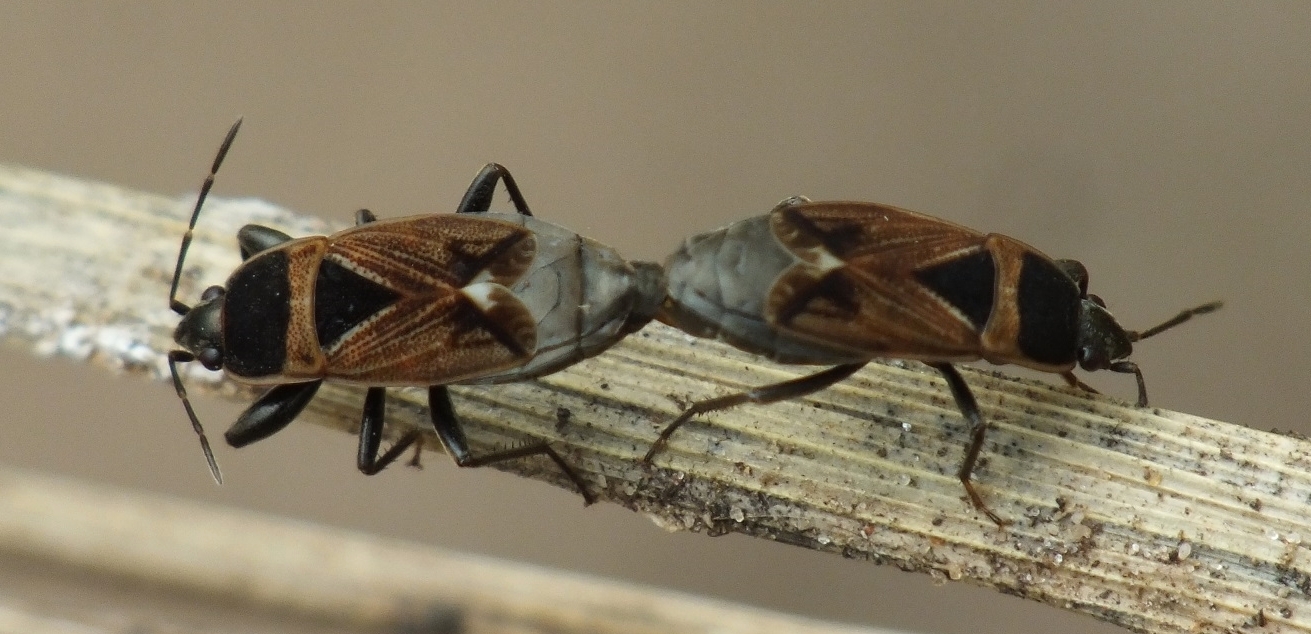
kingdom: Animalia
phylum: Arthropoda
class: Insecta
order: Hemiptera
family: Rhyparochromidae
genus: Bleteogonus
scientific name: Bleteogonus beckeri
